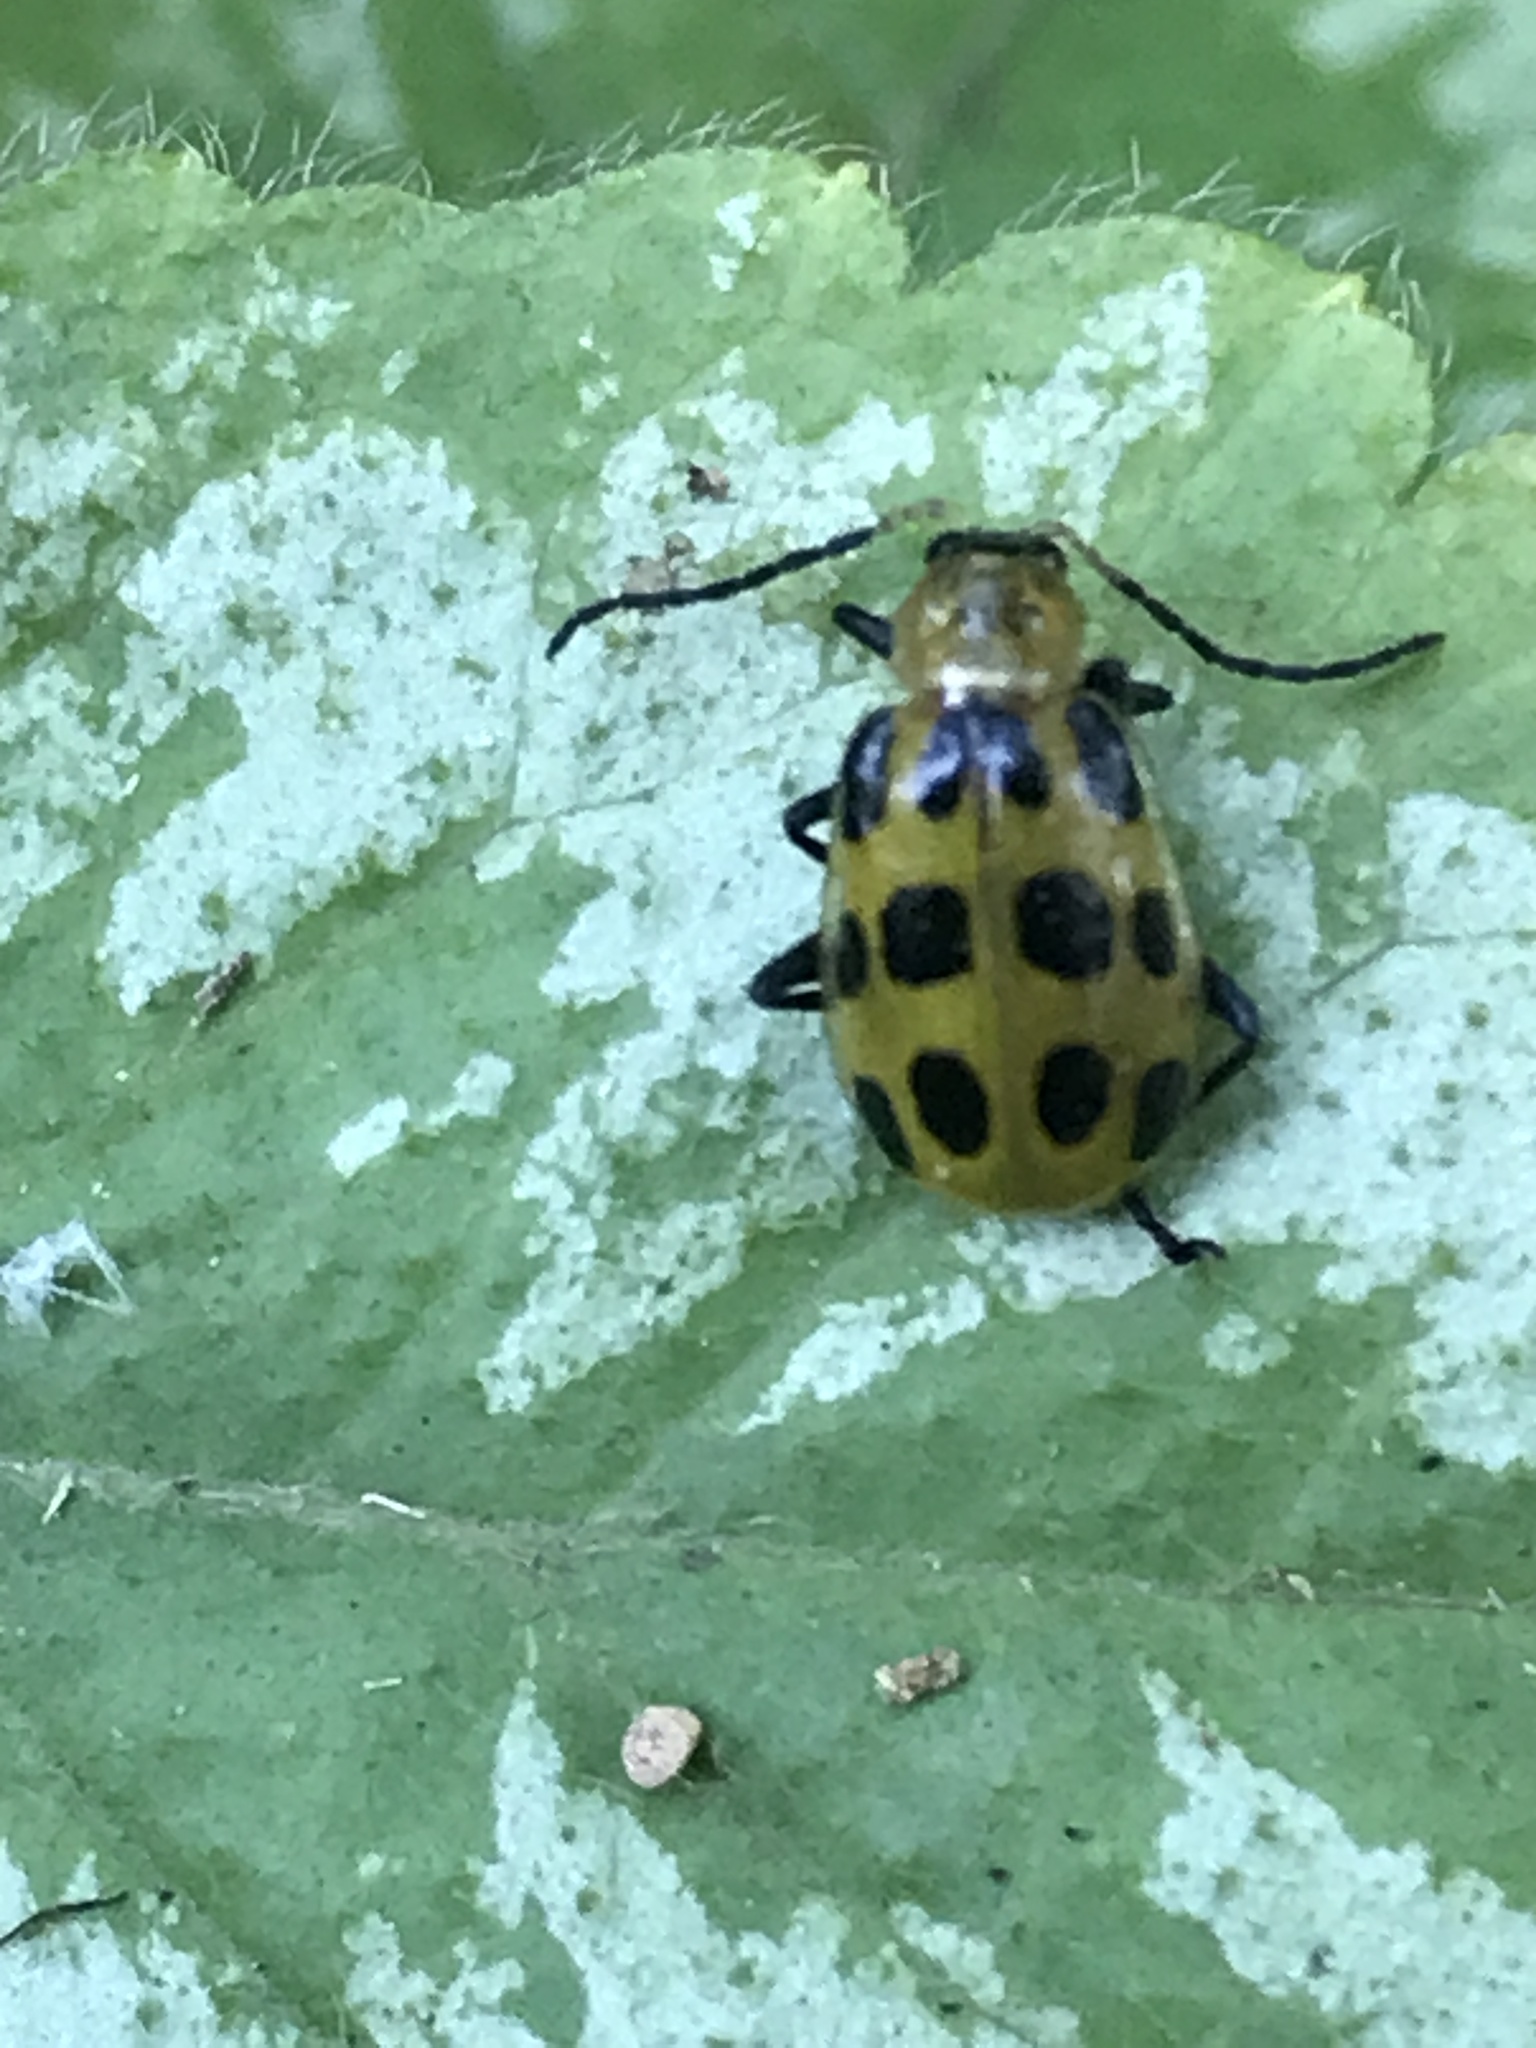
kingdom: Animalia
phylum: Arthropoda
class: Insecta
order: Coleoptera
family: Chrysomelidae
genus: Diabrotica
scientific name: Diabrotica undecimpunctata
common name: Spotted cucumber beetle
